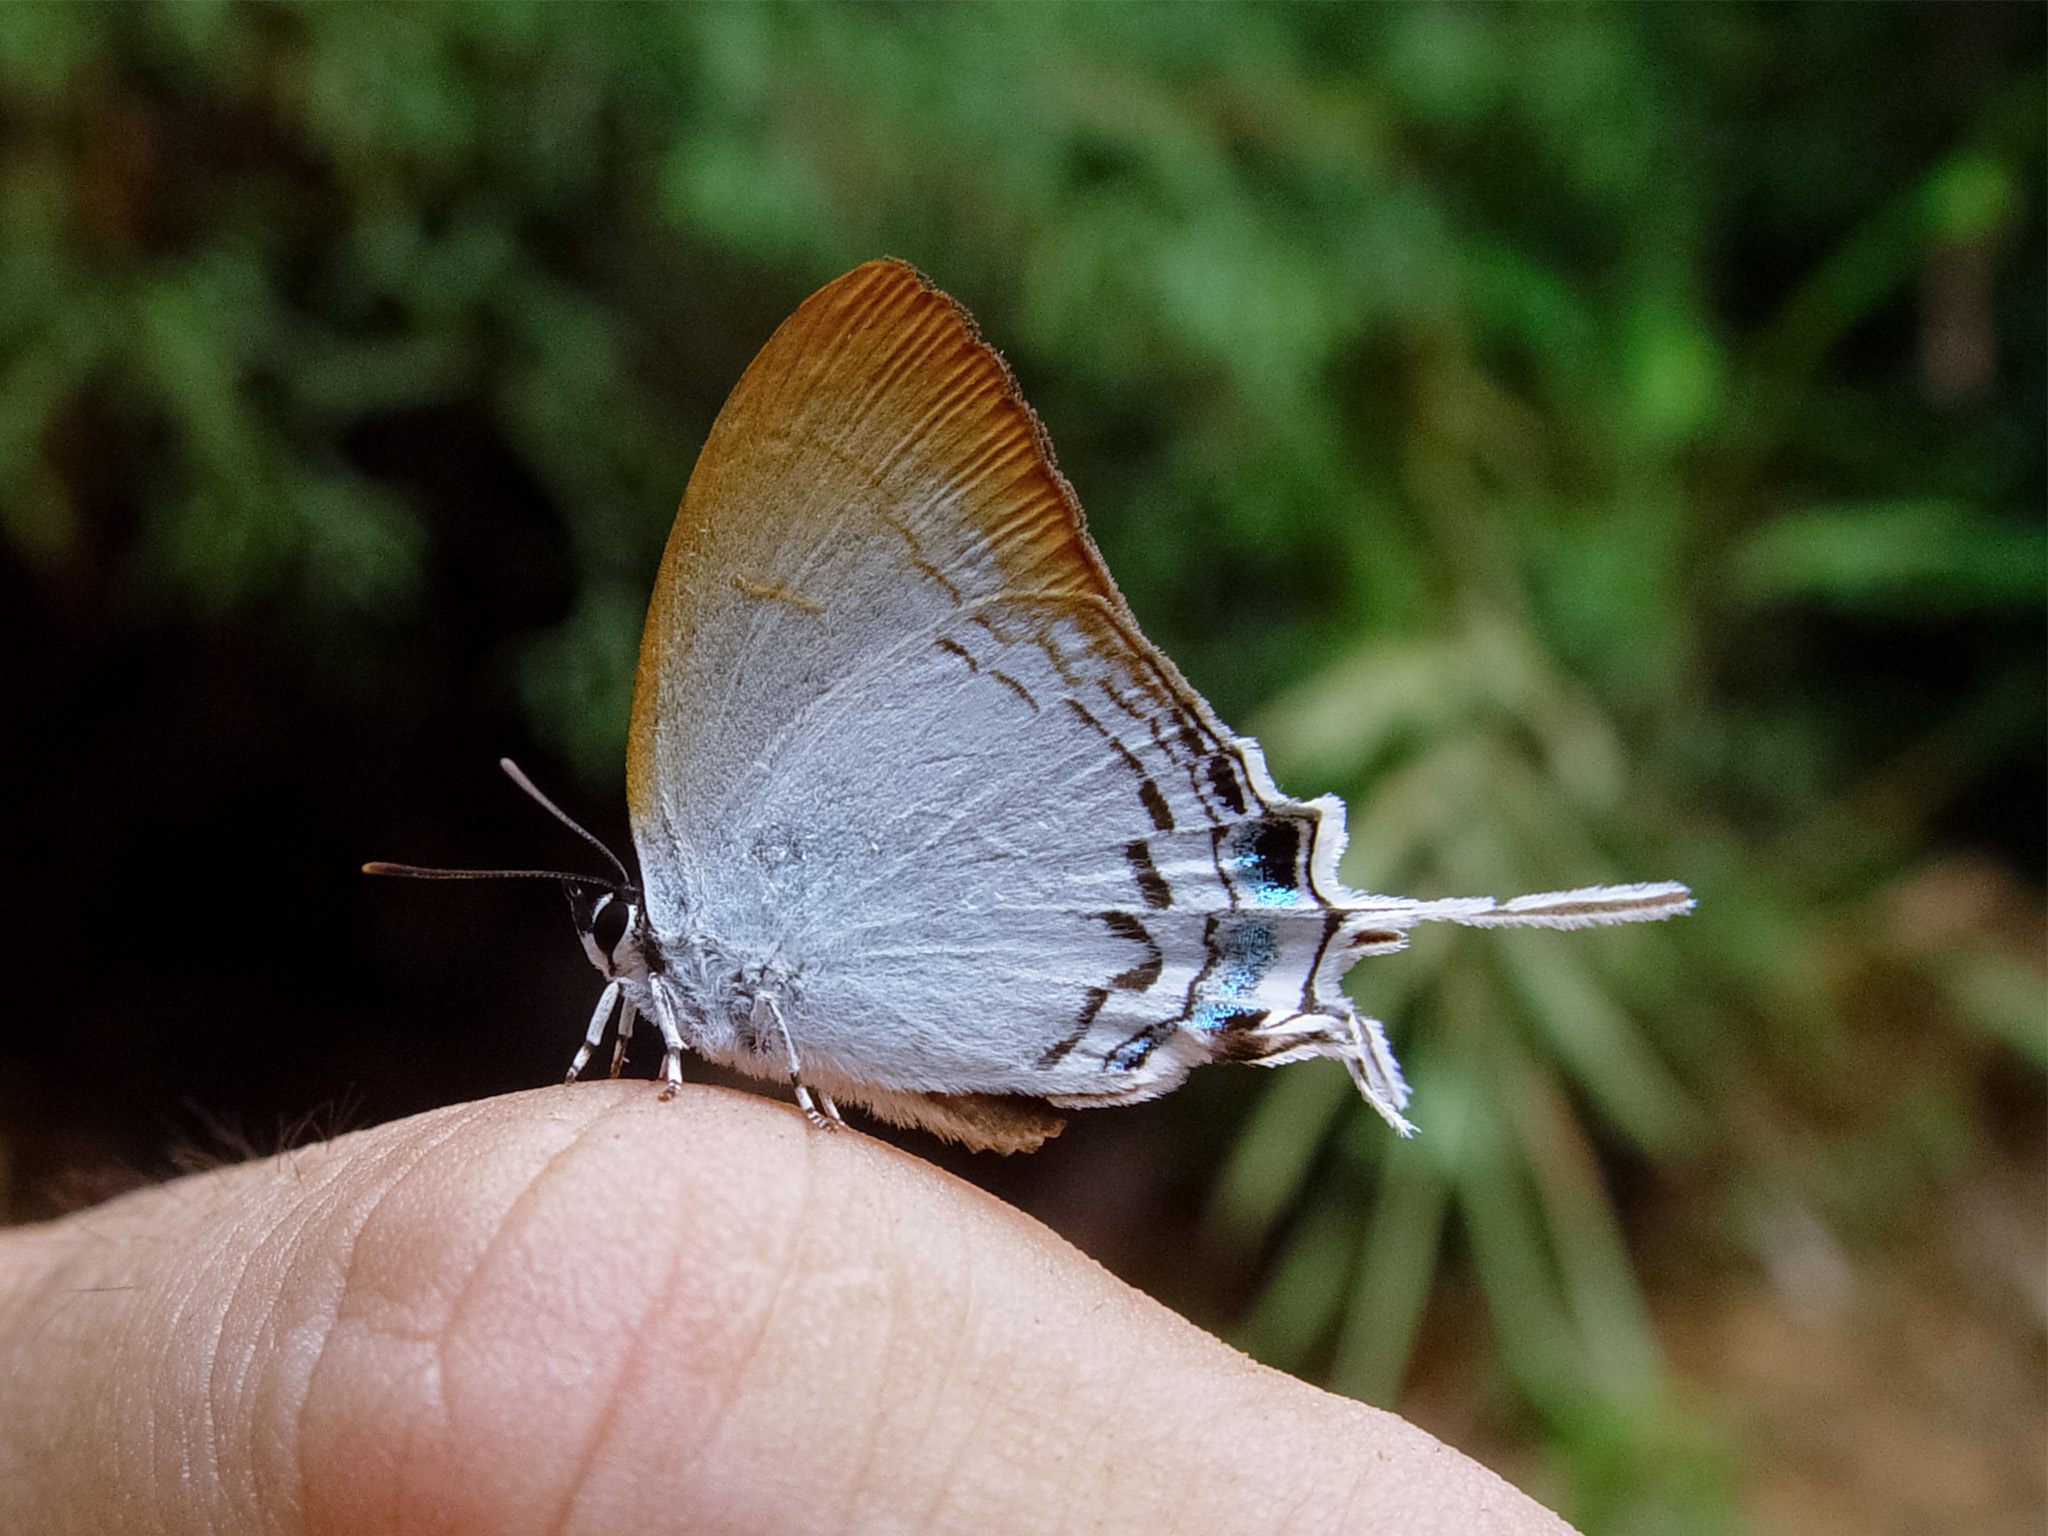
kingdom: Animalia
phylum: Arthropoda
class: Insecta
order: Lepidoptera
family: Lycaenidae
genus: Cheritra
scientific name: Cheritra freja
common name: Common imperial
